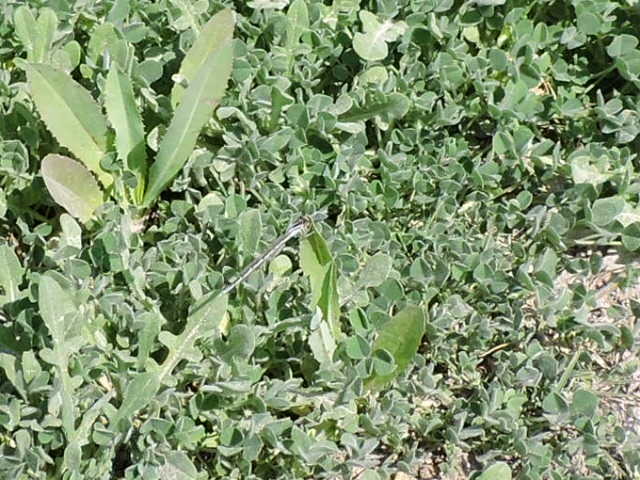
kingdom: Animalia
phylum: Arthropoda
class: Insecta
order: Odonata
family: Coenagrionidae
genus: Enallagma
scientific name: Enallagma civile
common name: Damselfly
